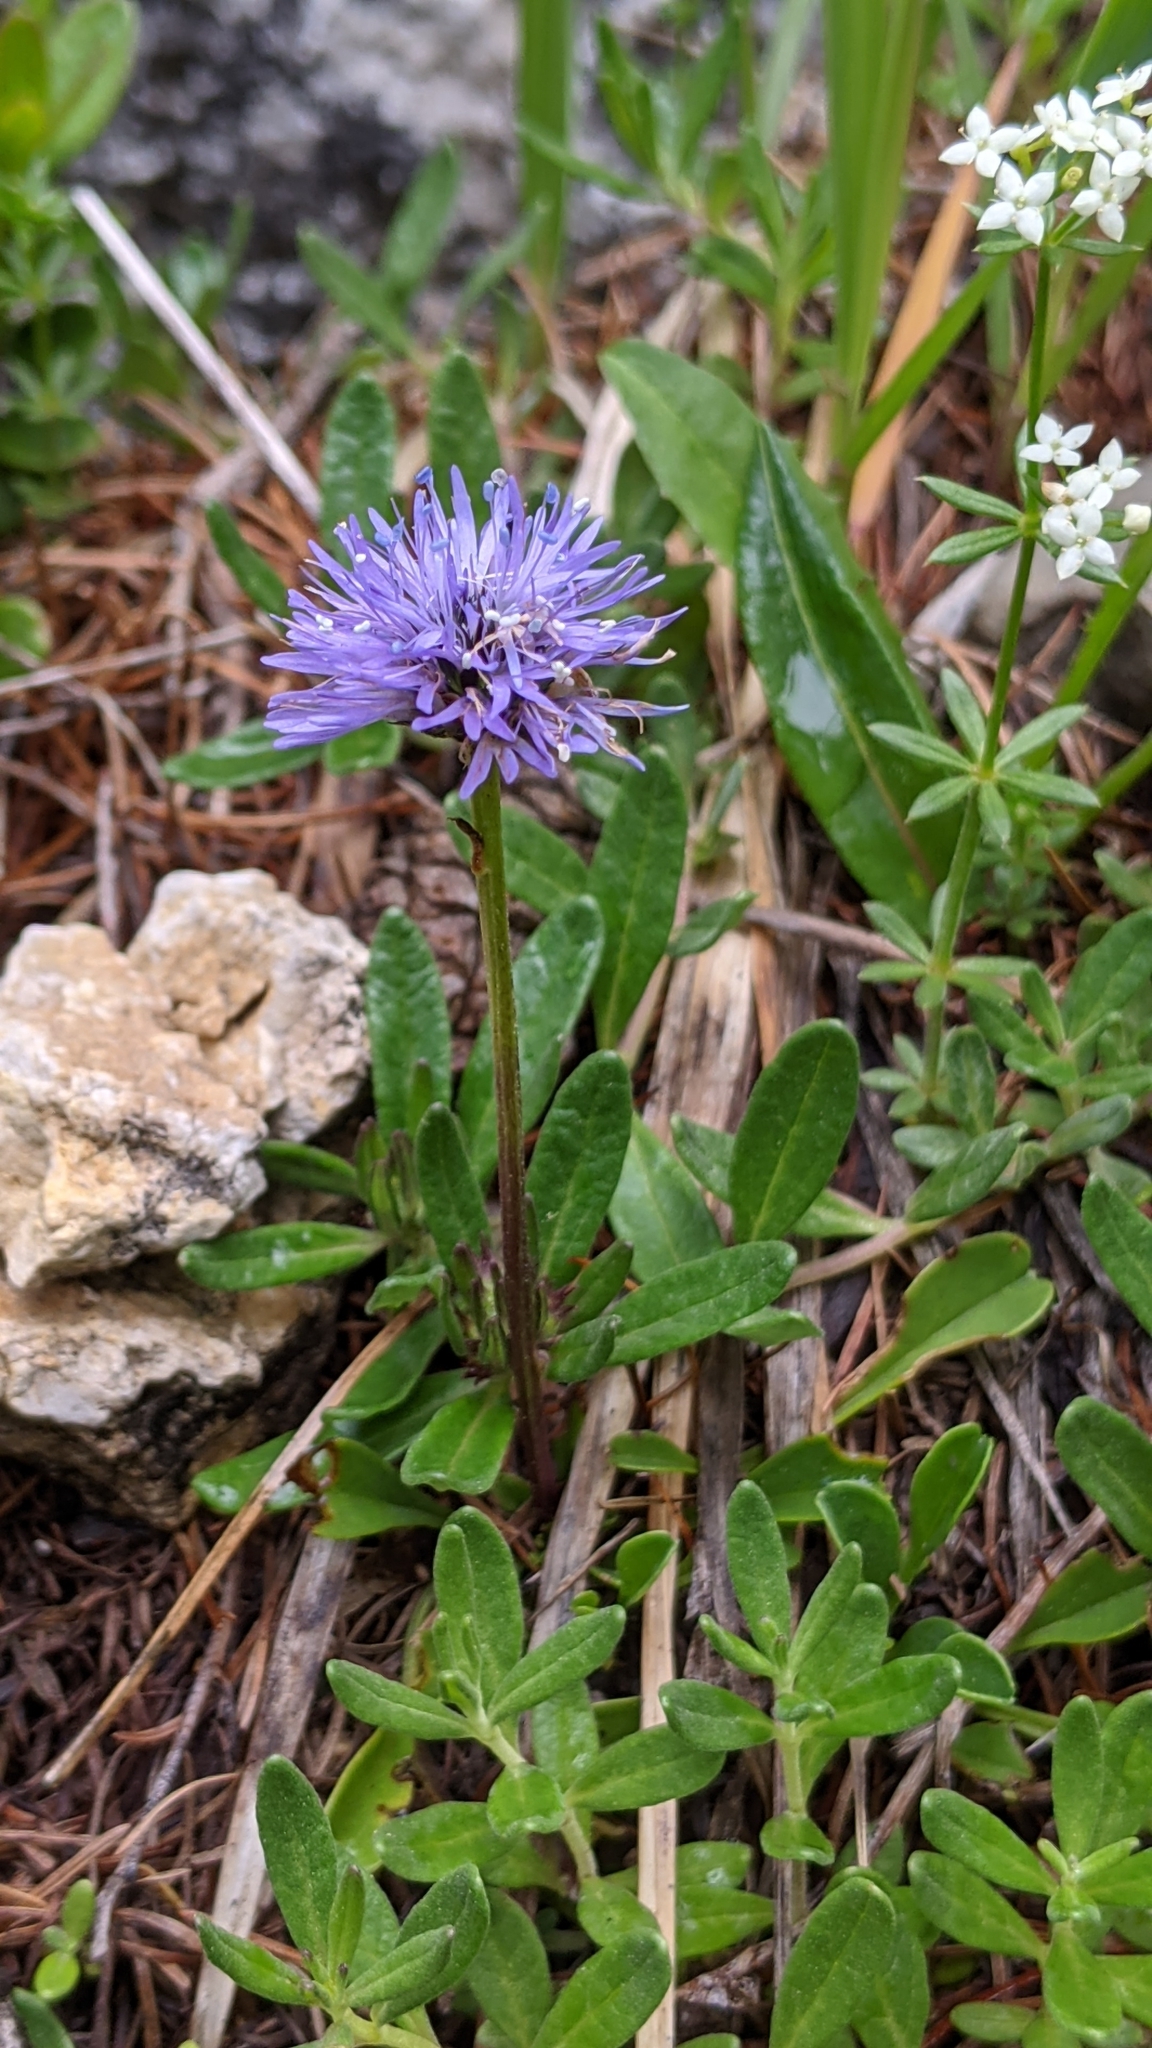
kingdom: Plantae
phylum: Tracheophyta
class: Magnoliopsida
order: Lamiales
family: Plantaginaceae
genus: Globularia
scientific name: Globularia nudicaulis
